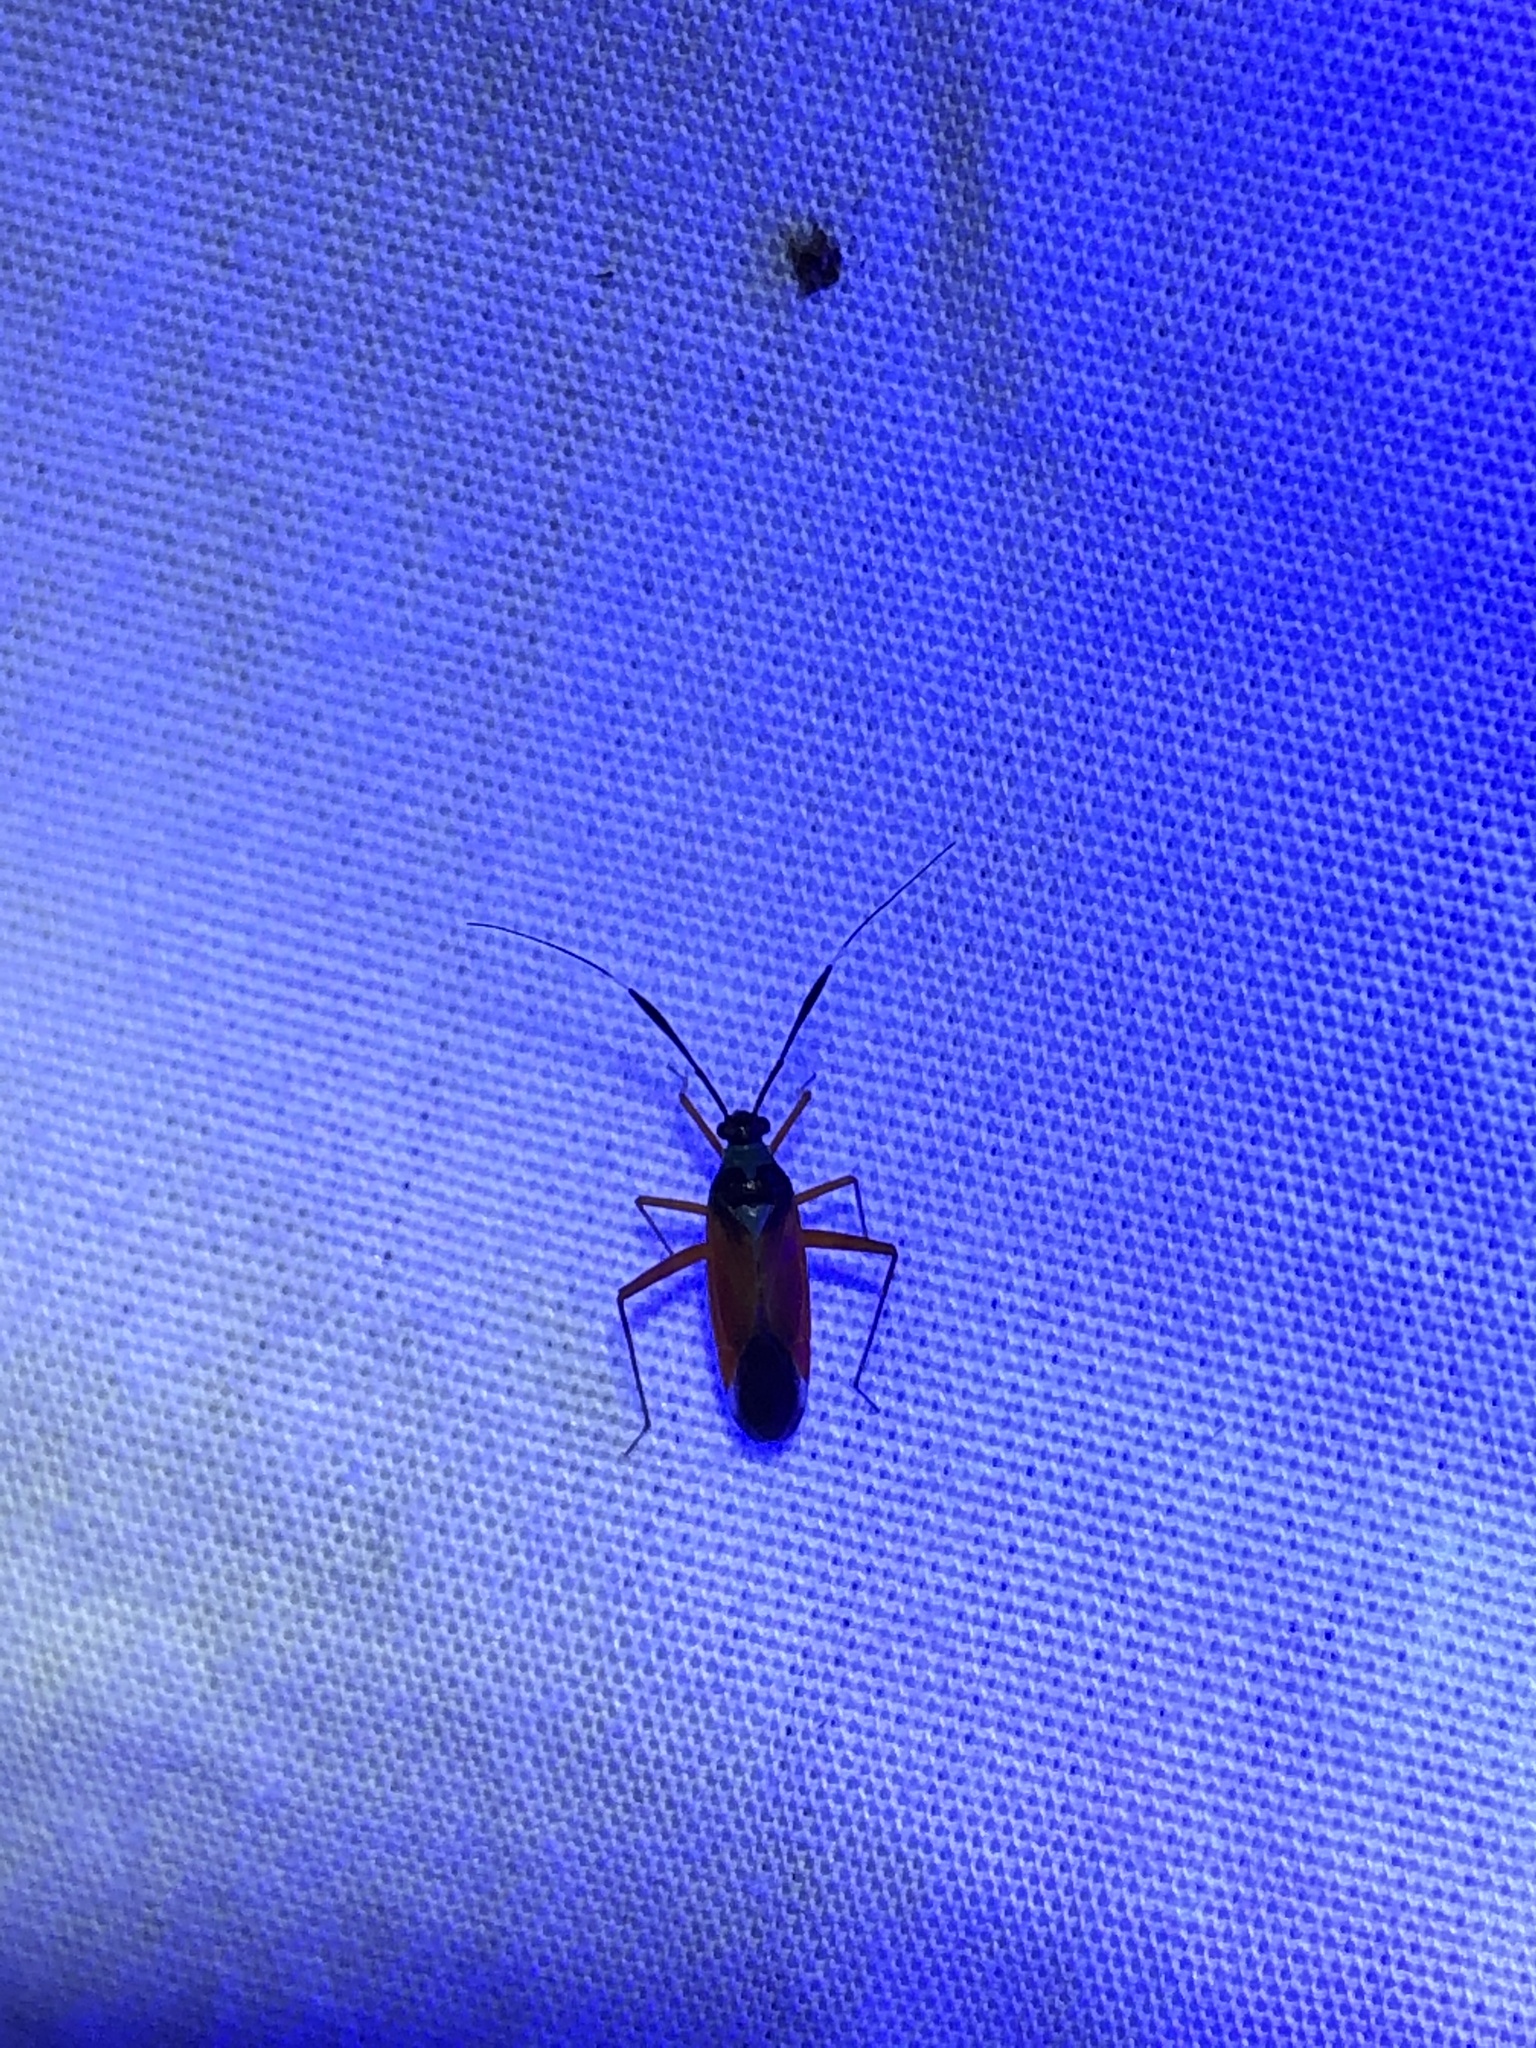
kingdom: Animalia
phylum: Arthropoda
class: Insecta
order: Hemiptera
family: Miridae
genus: Garganus
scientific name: Garganus splendidus
